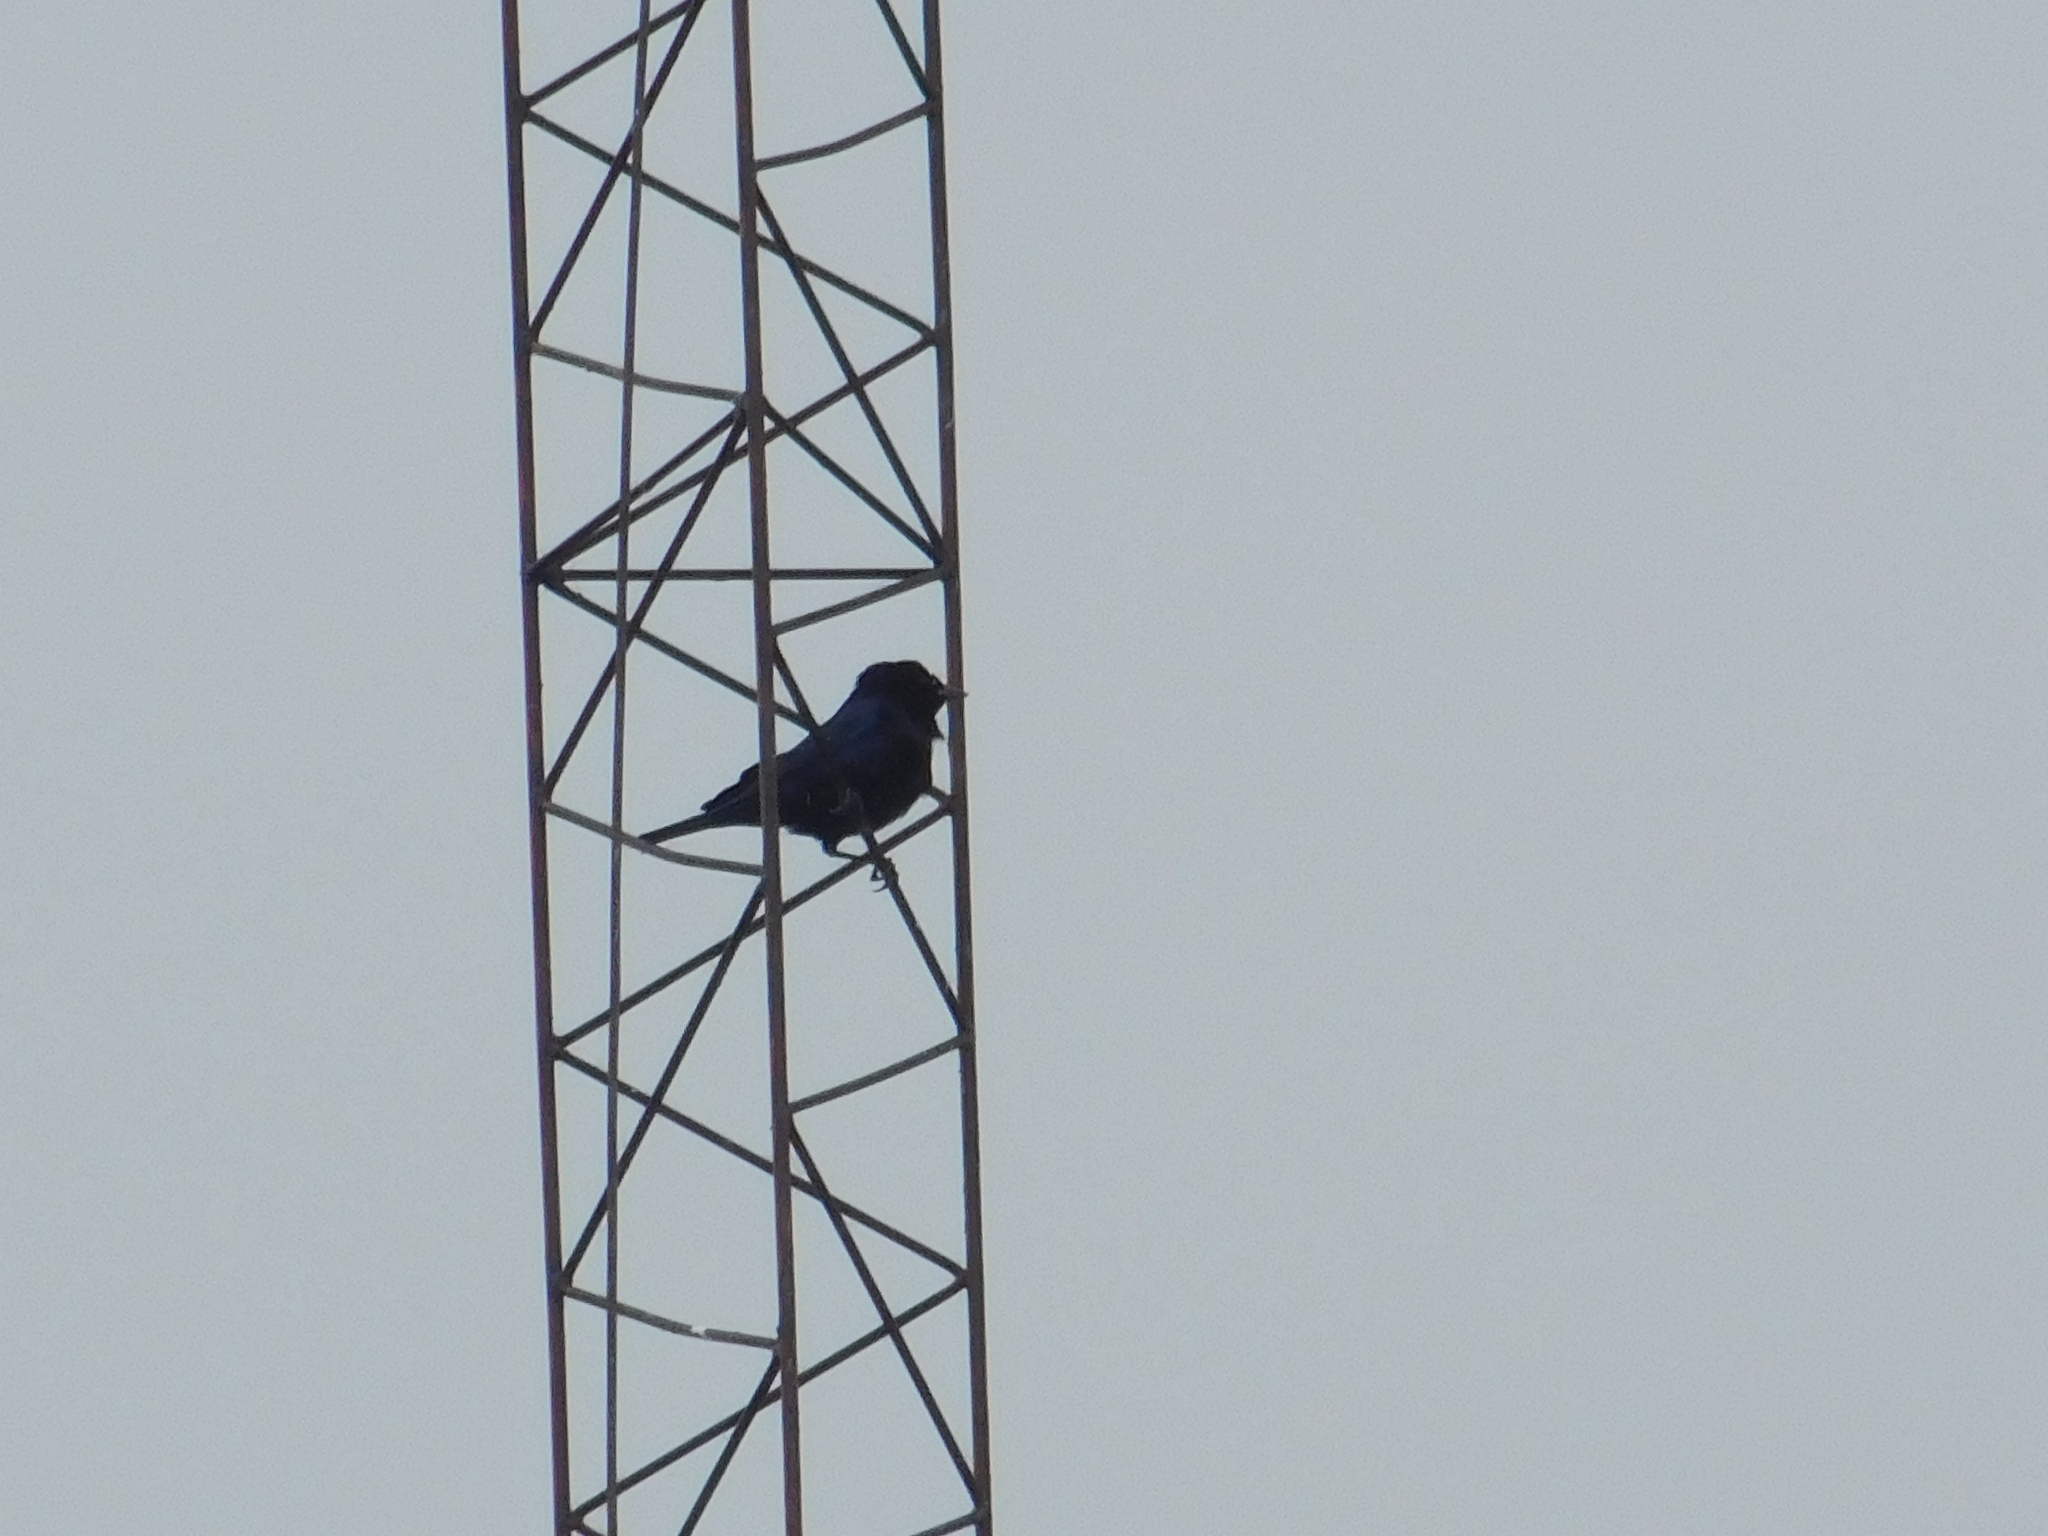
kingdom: Animalia
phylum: Chordata
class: Aves
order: Passeriformes
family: Icteridae
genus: Molothrus
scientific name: Molothrus bonariensis
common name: Shiny cowbird
